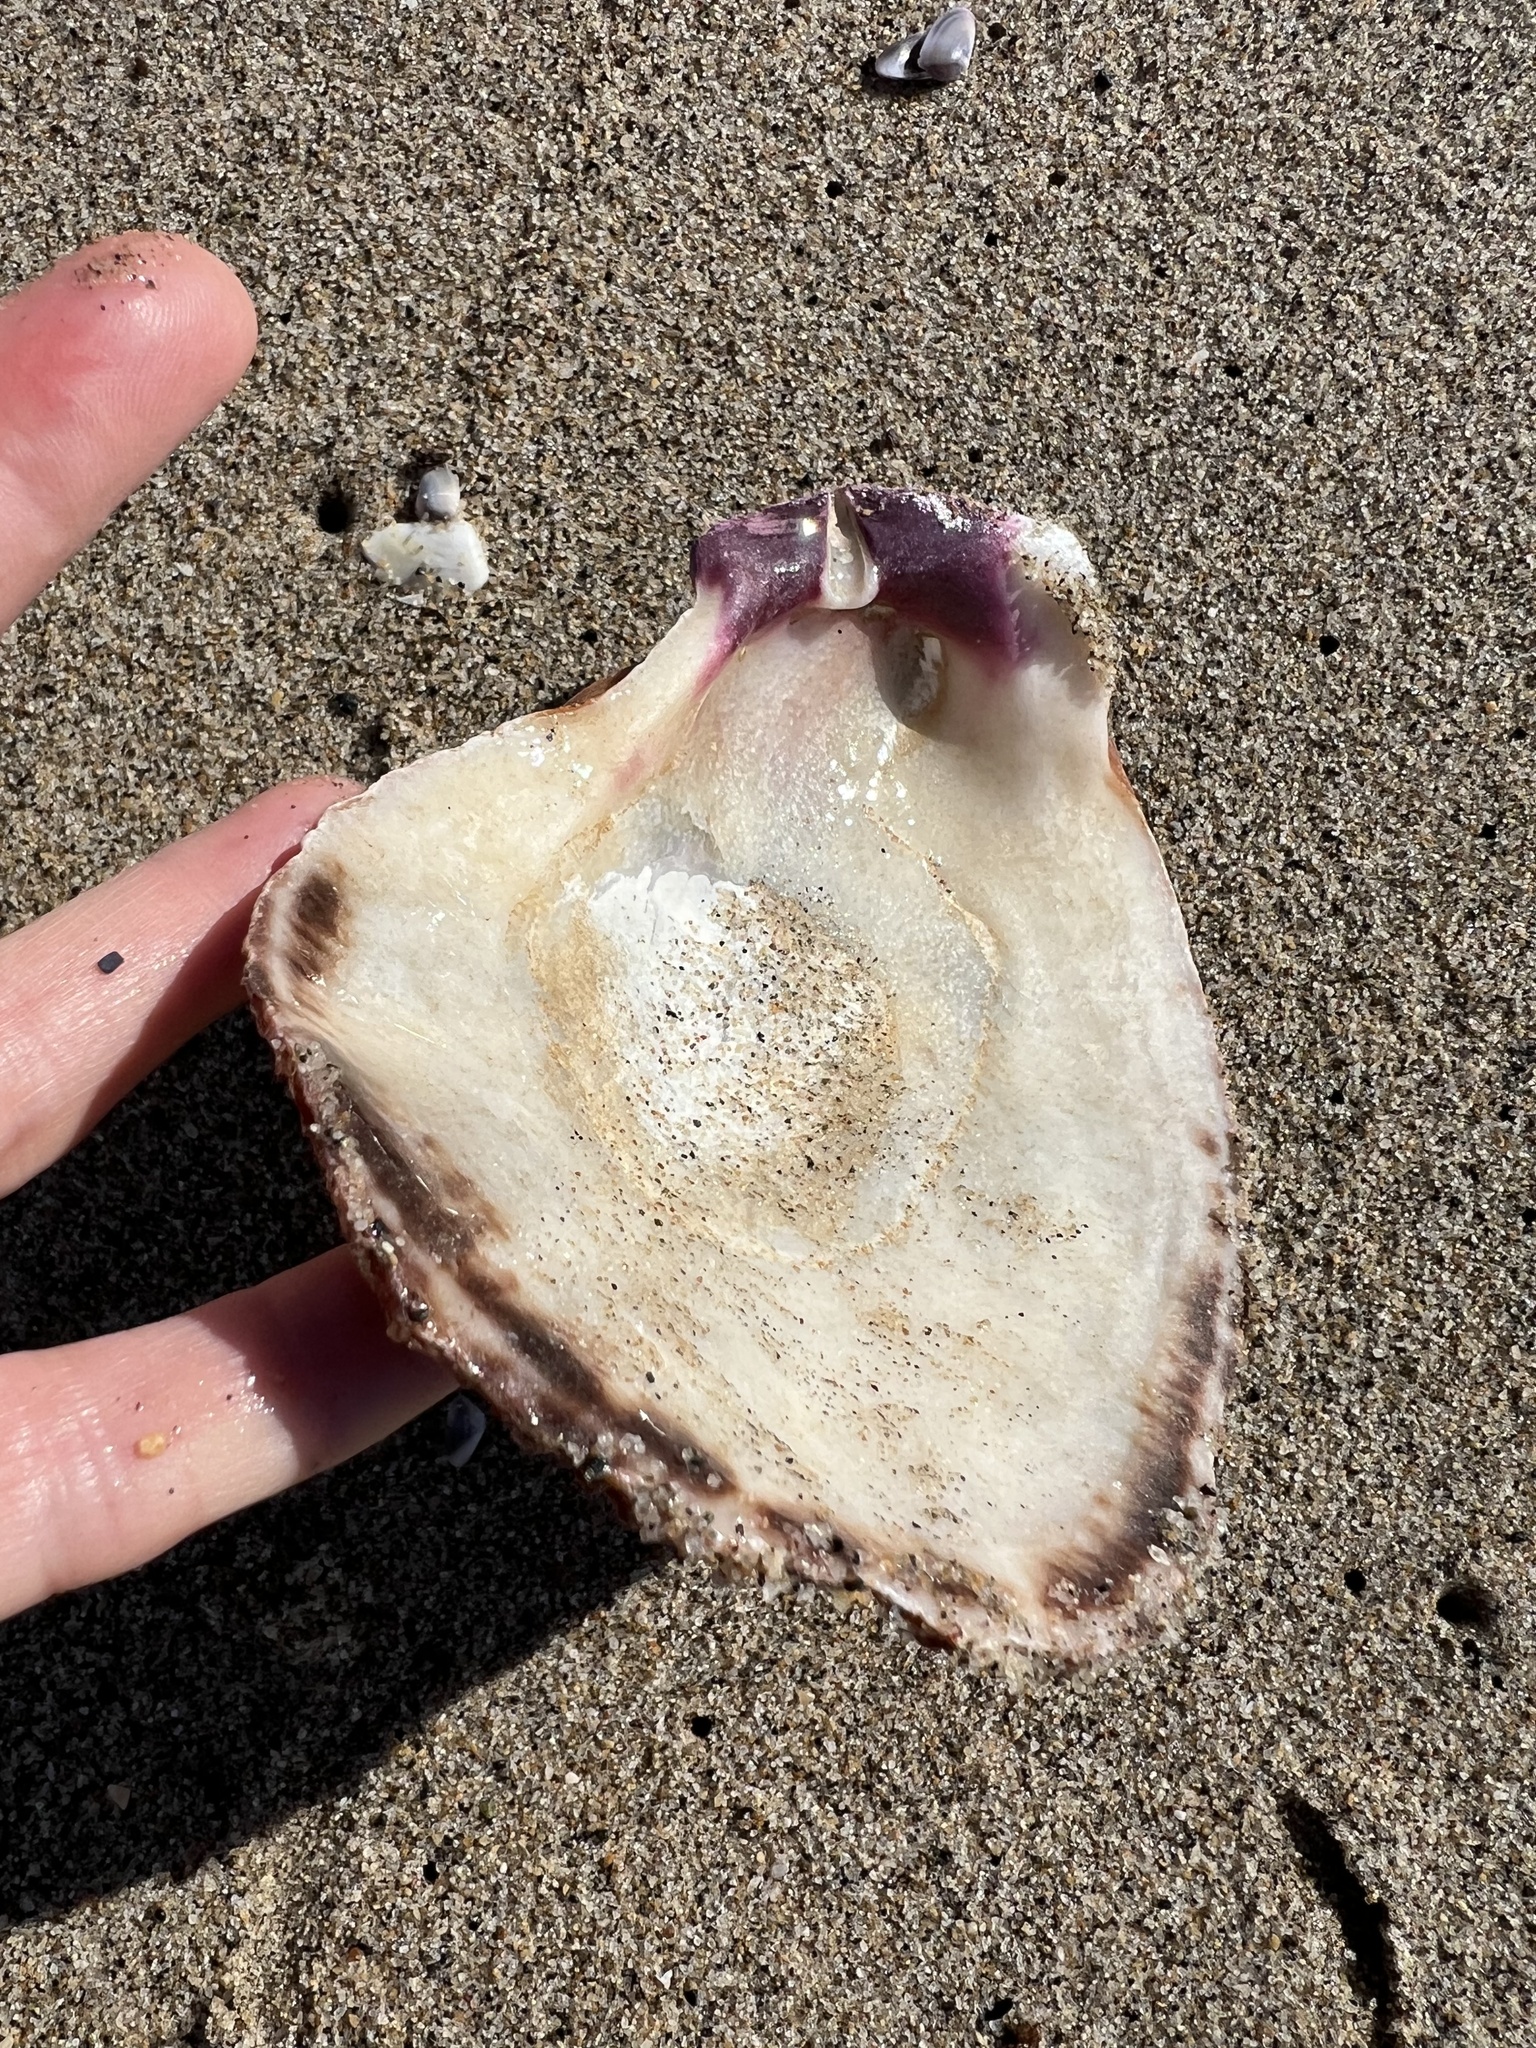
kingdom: Animalia
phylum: Mollusca
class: Bivalvia
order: Pectinida
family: Pectinidae
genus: Crassadoma
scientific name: Crassadoma gigantea
